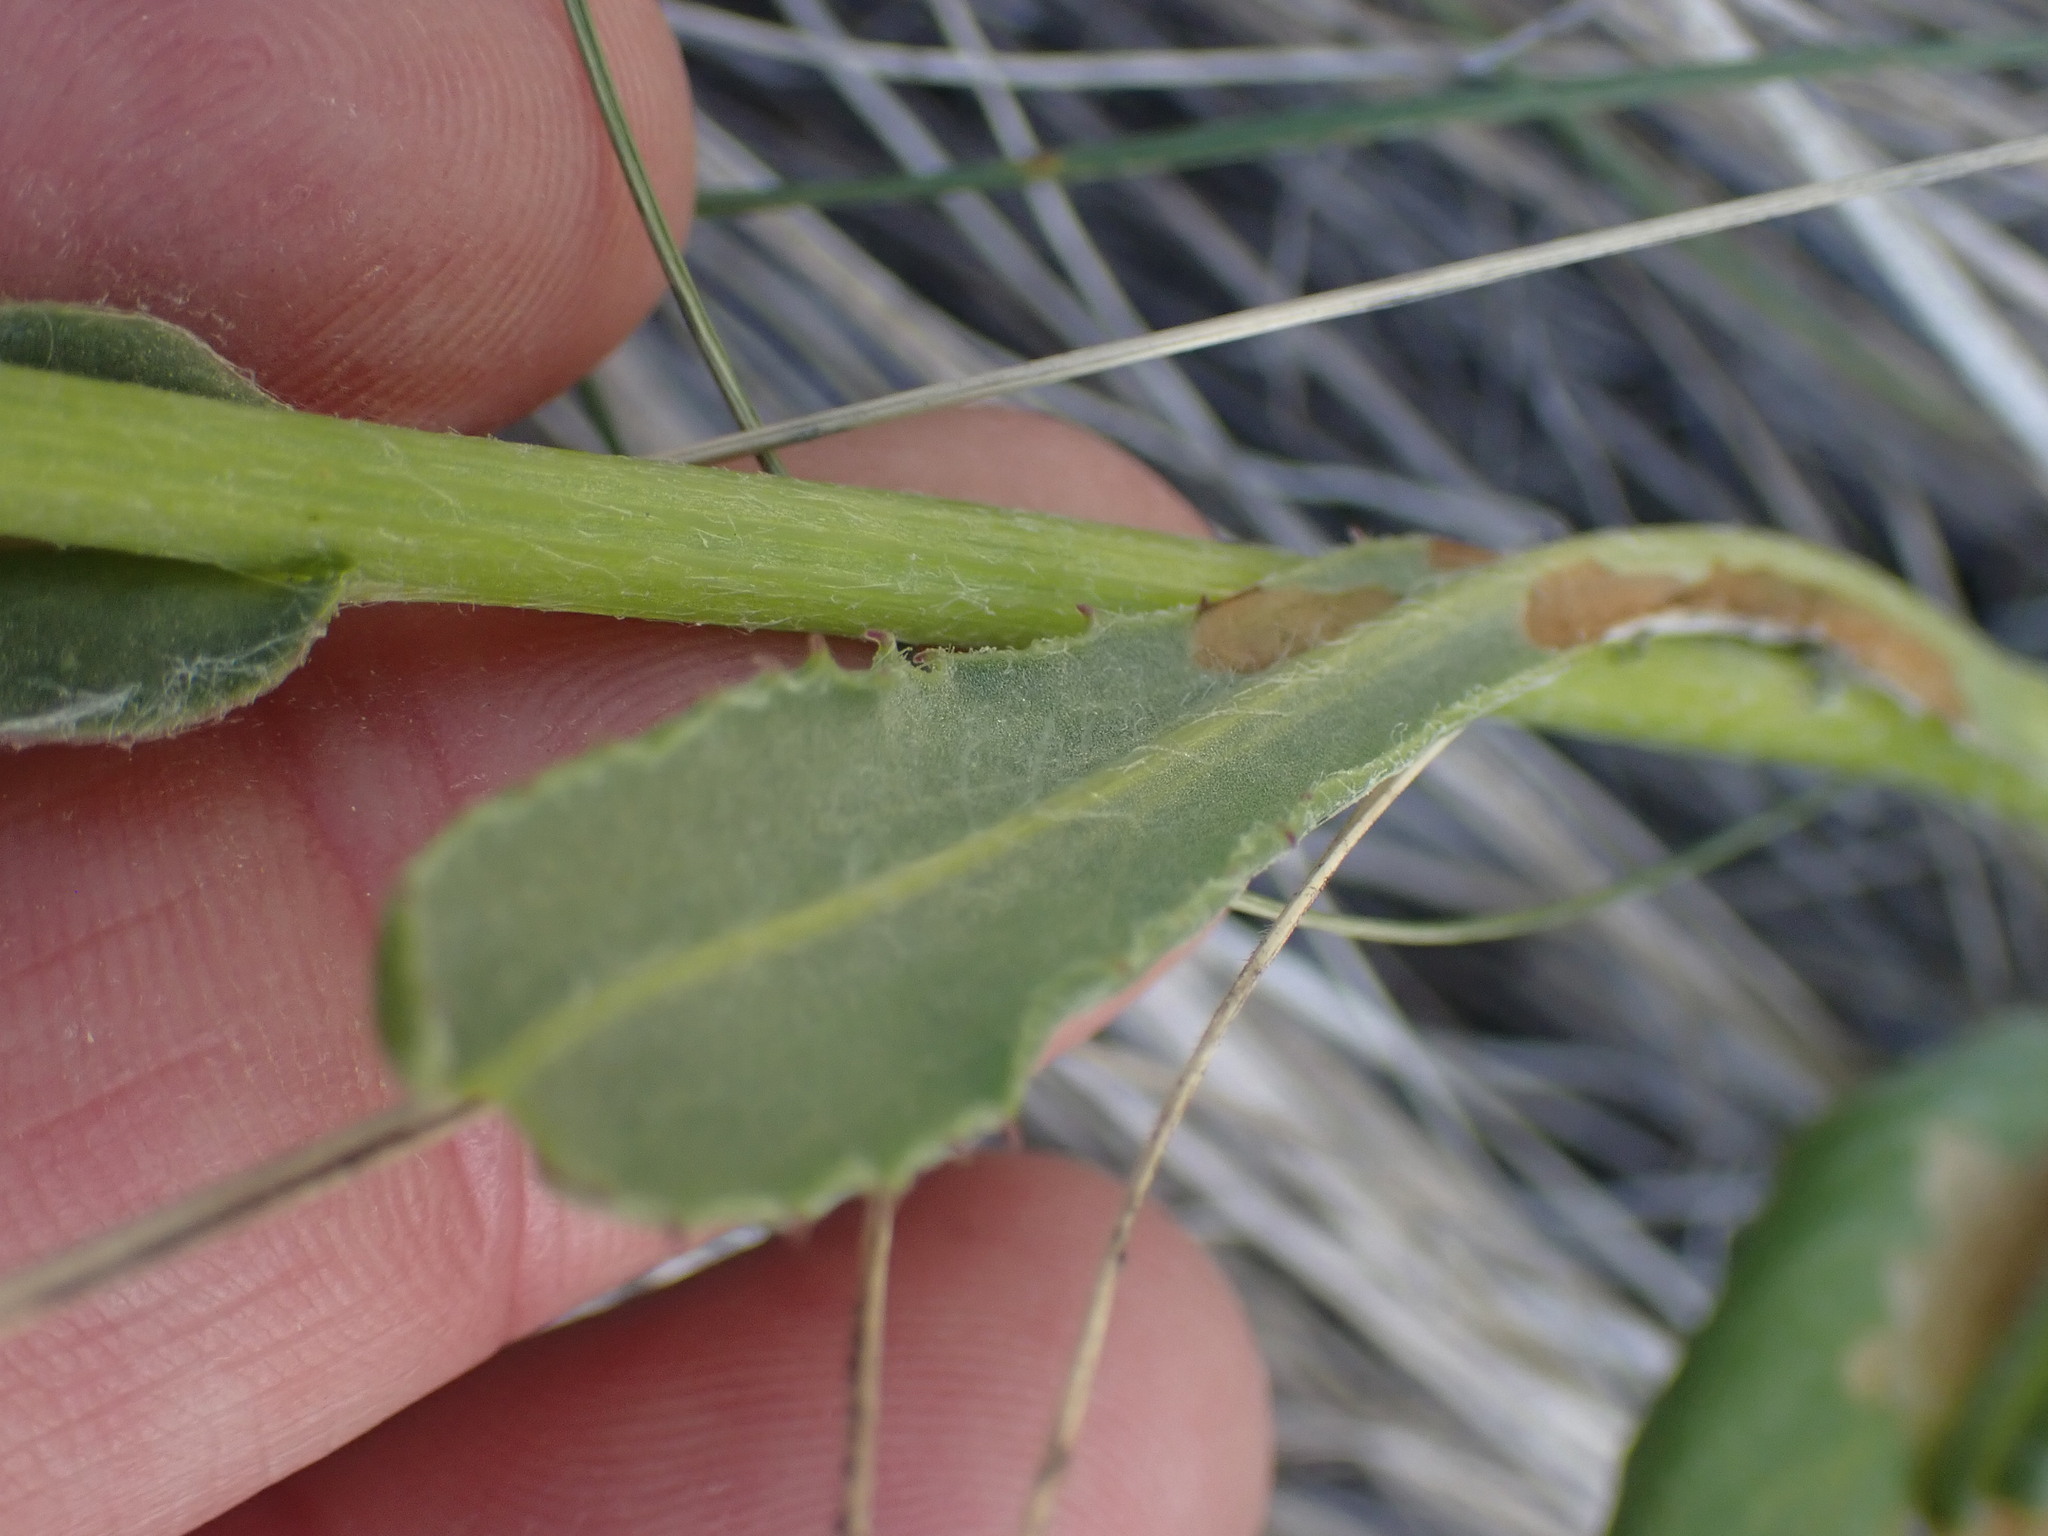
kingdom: Plantae
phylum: Tracheophyta
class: Magnoliopsida
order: Asterales
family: Asteraceae
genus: Senecio
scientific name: Senecio integerrimus
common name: Gaugeplant
